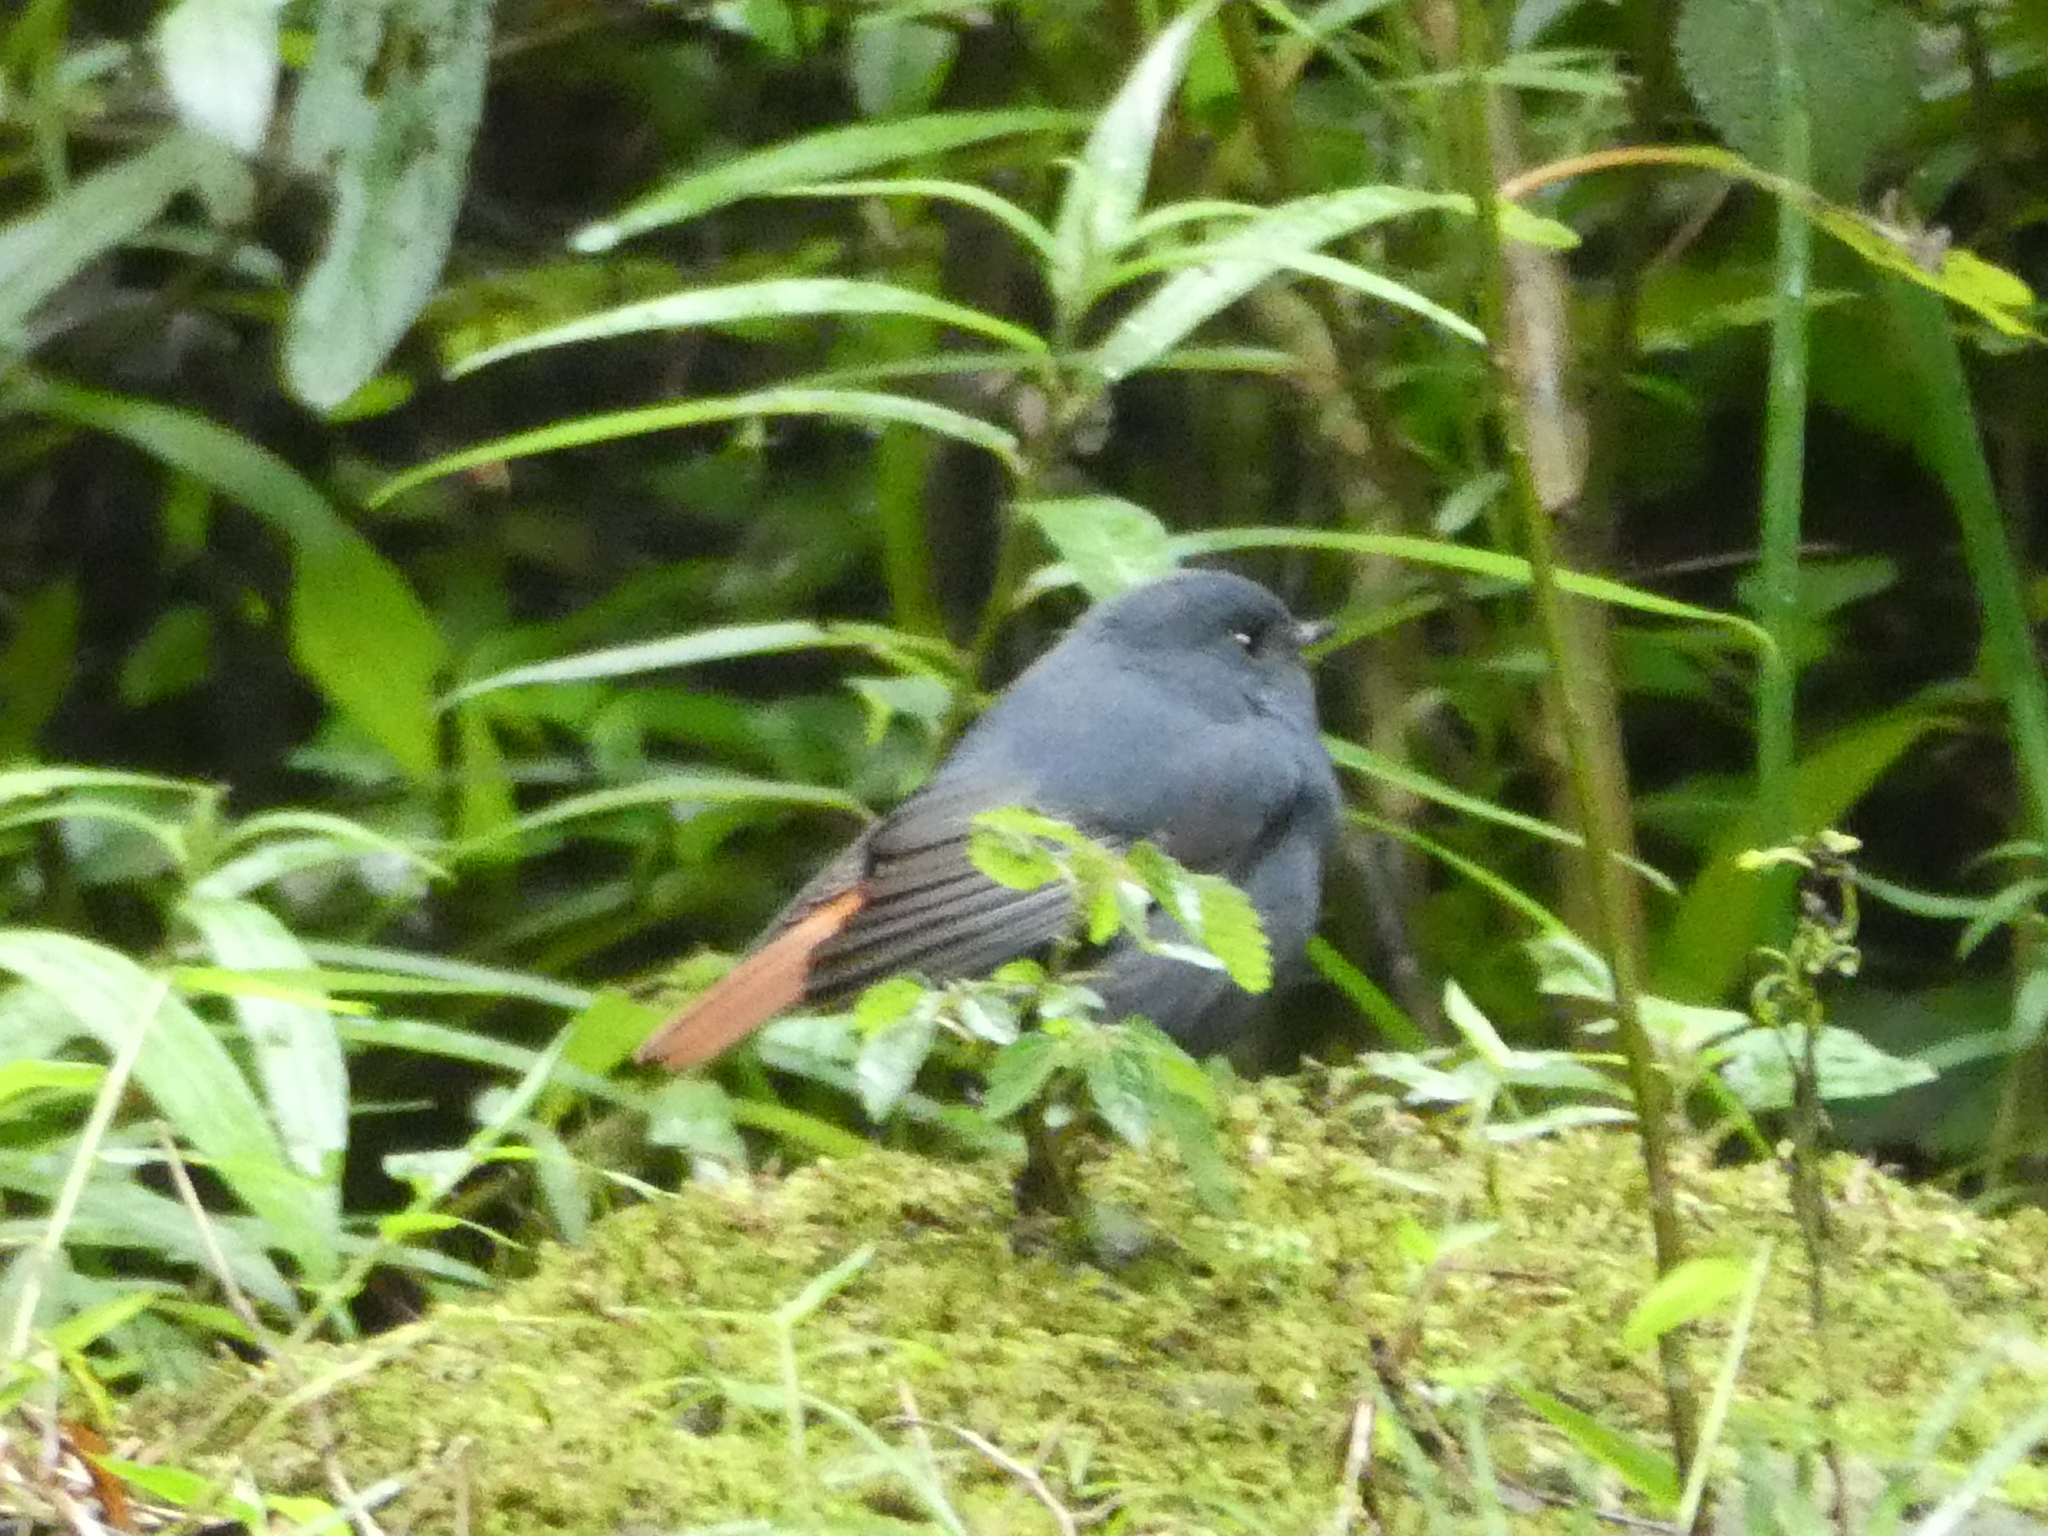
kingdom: Animalia
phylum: Chordata
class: Aves
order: Passeriformes
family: Muscicapidae
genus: Phoenicurus
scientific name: Phoenicurus fuliginosus
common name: Plumbeous water redstart
